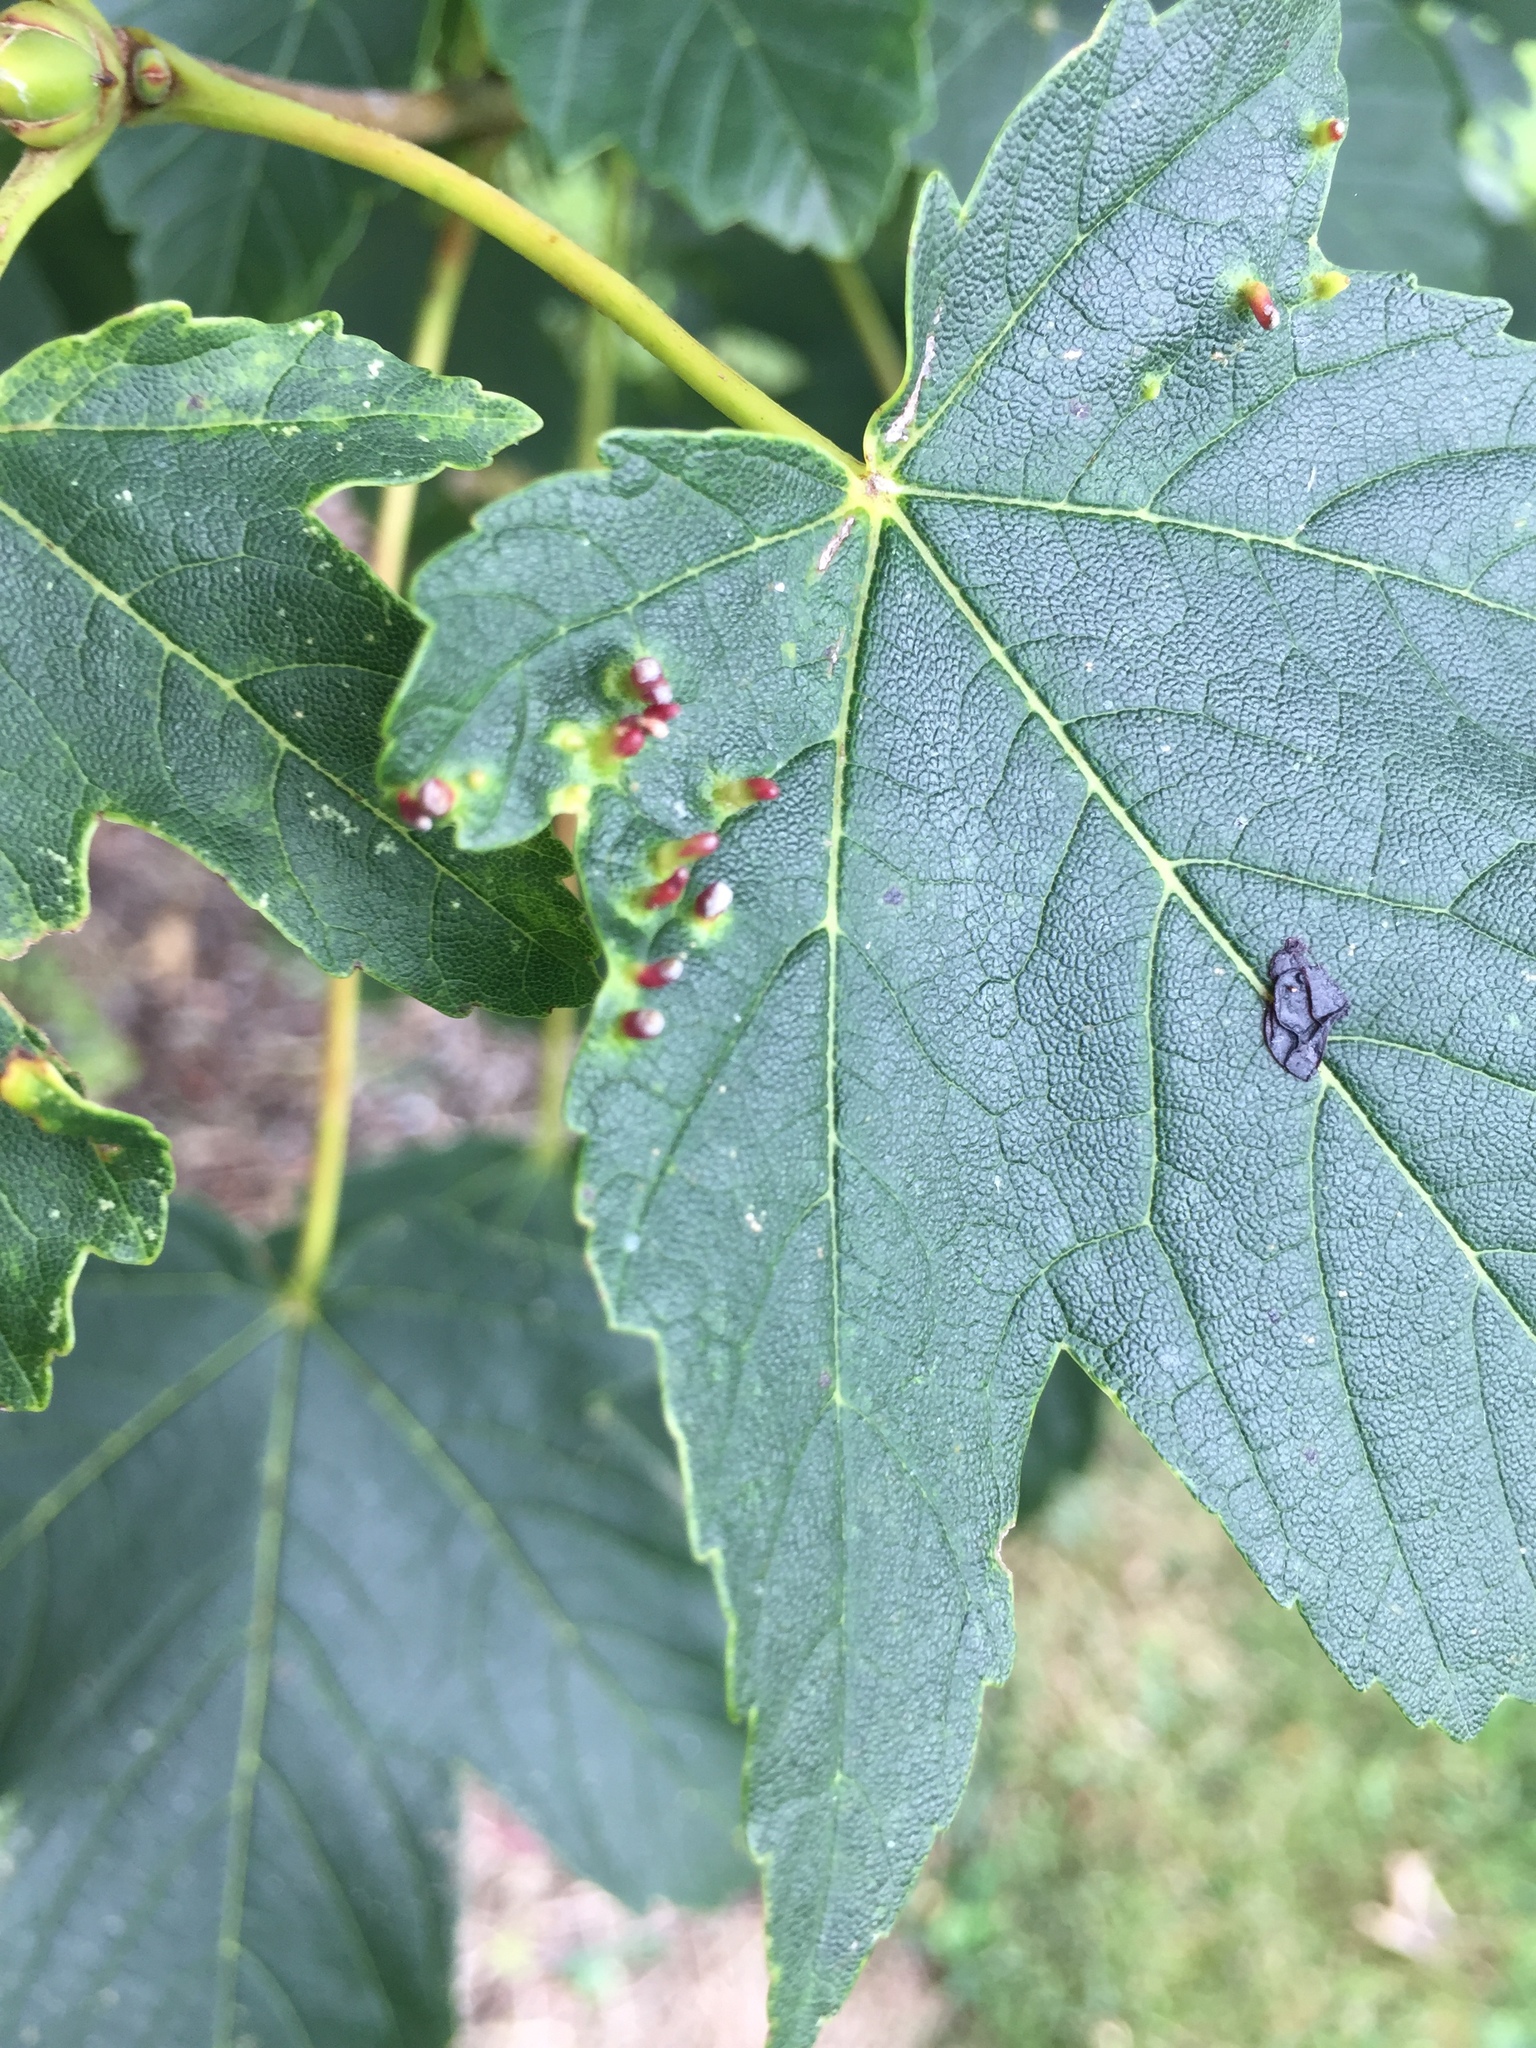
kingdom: Animalia
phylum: Arthropoda
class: Arachnida
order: Trombidiformes
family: Eriophyidae
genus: Aceria
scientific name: Aceria macrorhynchus
